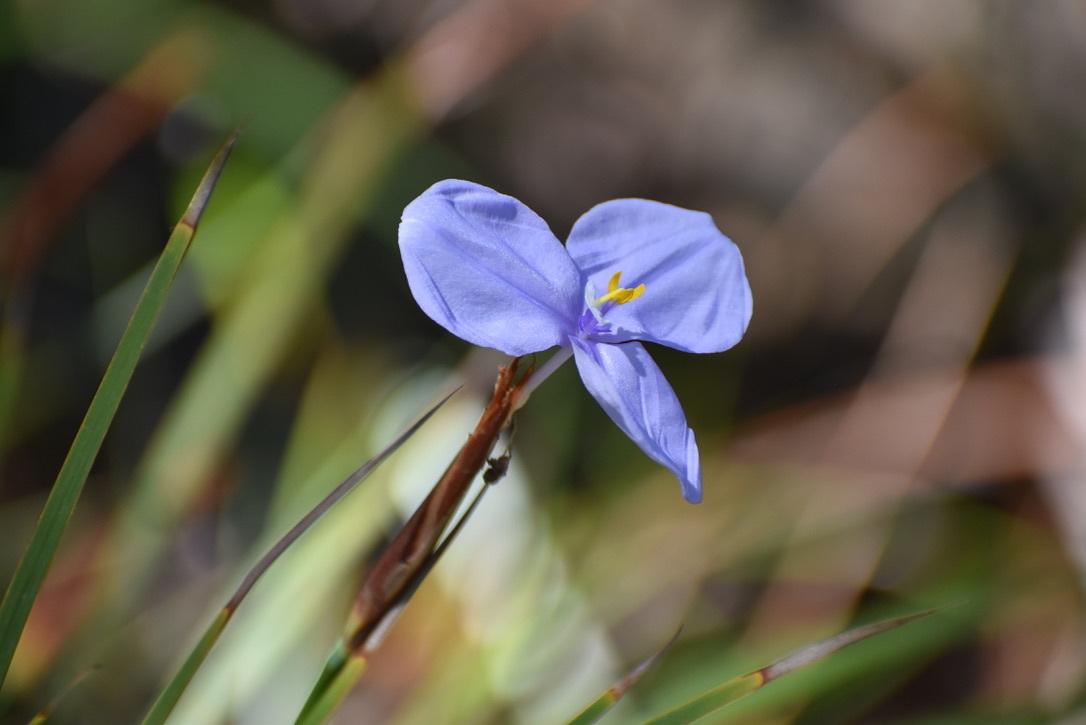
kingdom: Plantae
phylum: Tracheophyta
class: Liliopsida
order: Asparagales
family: Iridaceae
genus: Patersonia
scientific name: Patersonia glabrata
